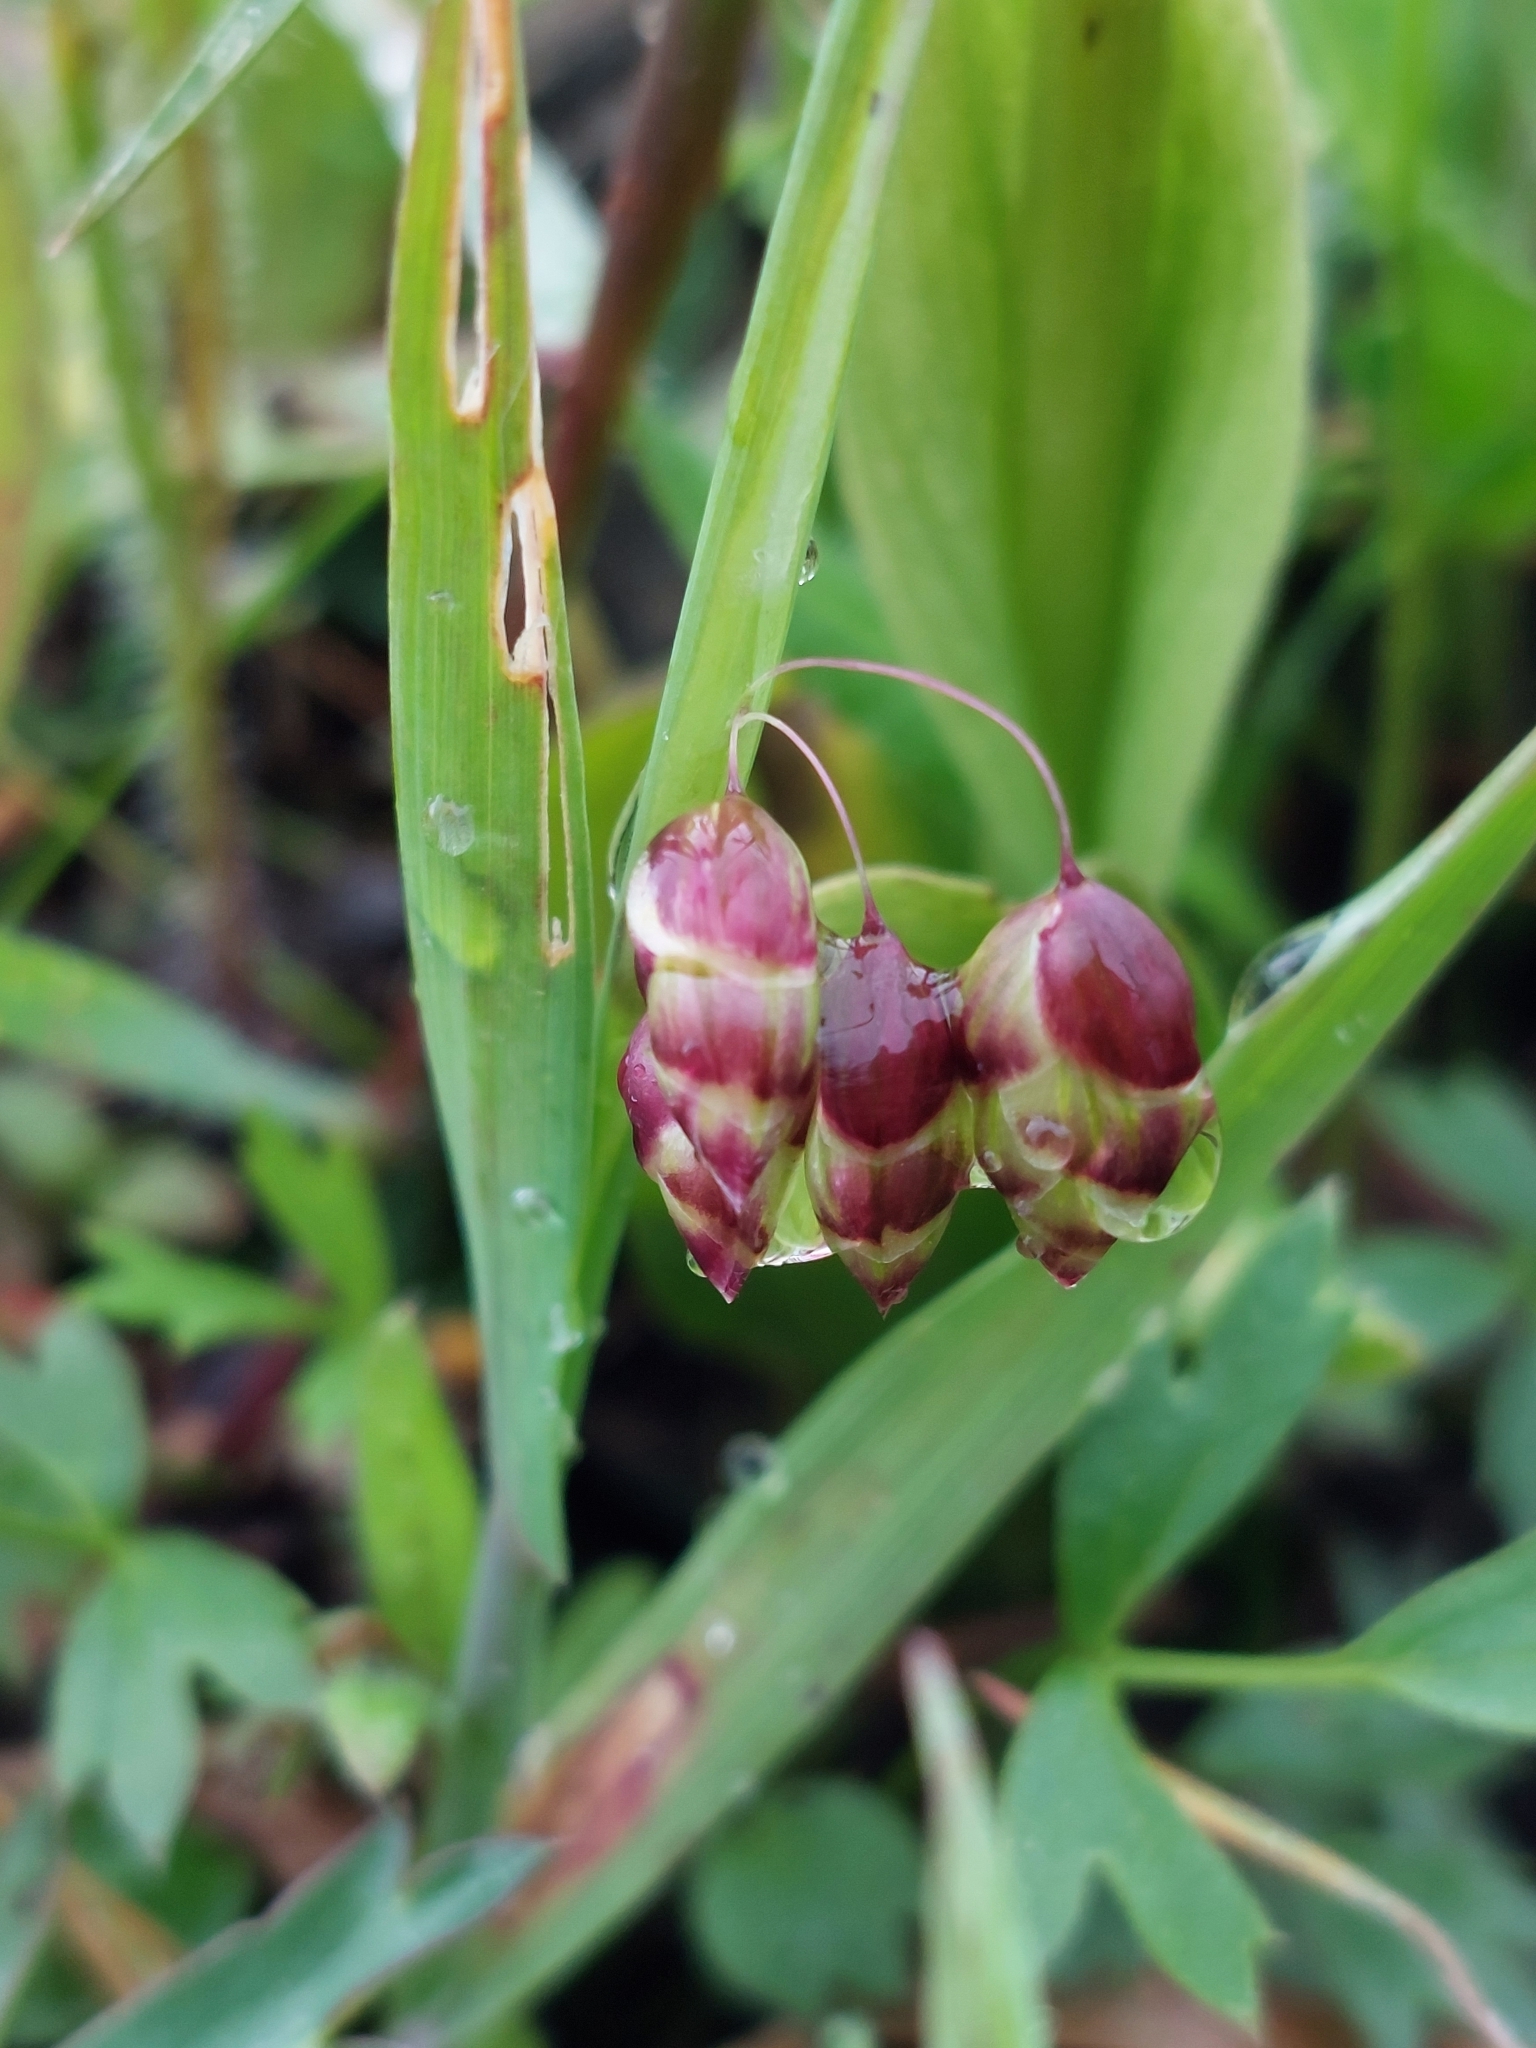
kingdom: Plantae
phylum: Tracheophyta
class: Liliopsida
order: Poales
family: Poaceae
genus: Briza
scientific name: Briza maxima
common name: Big quakinggrass
